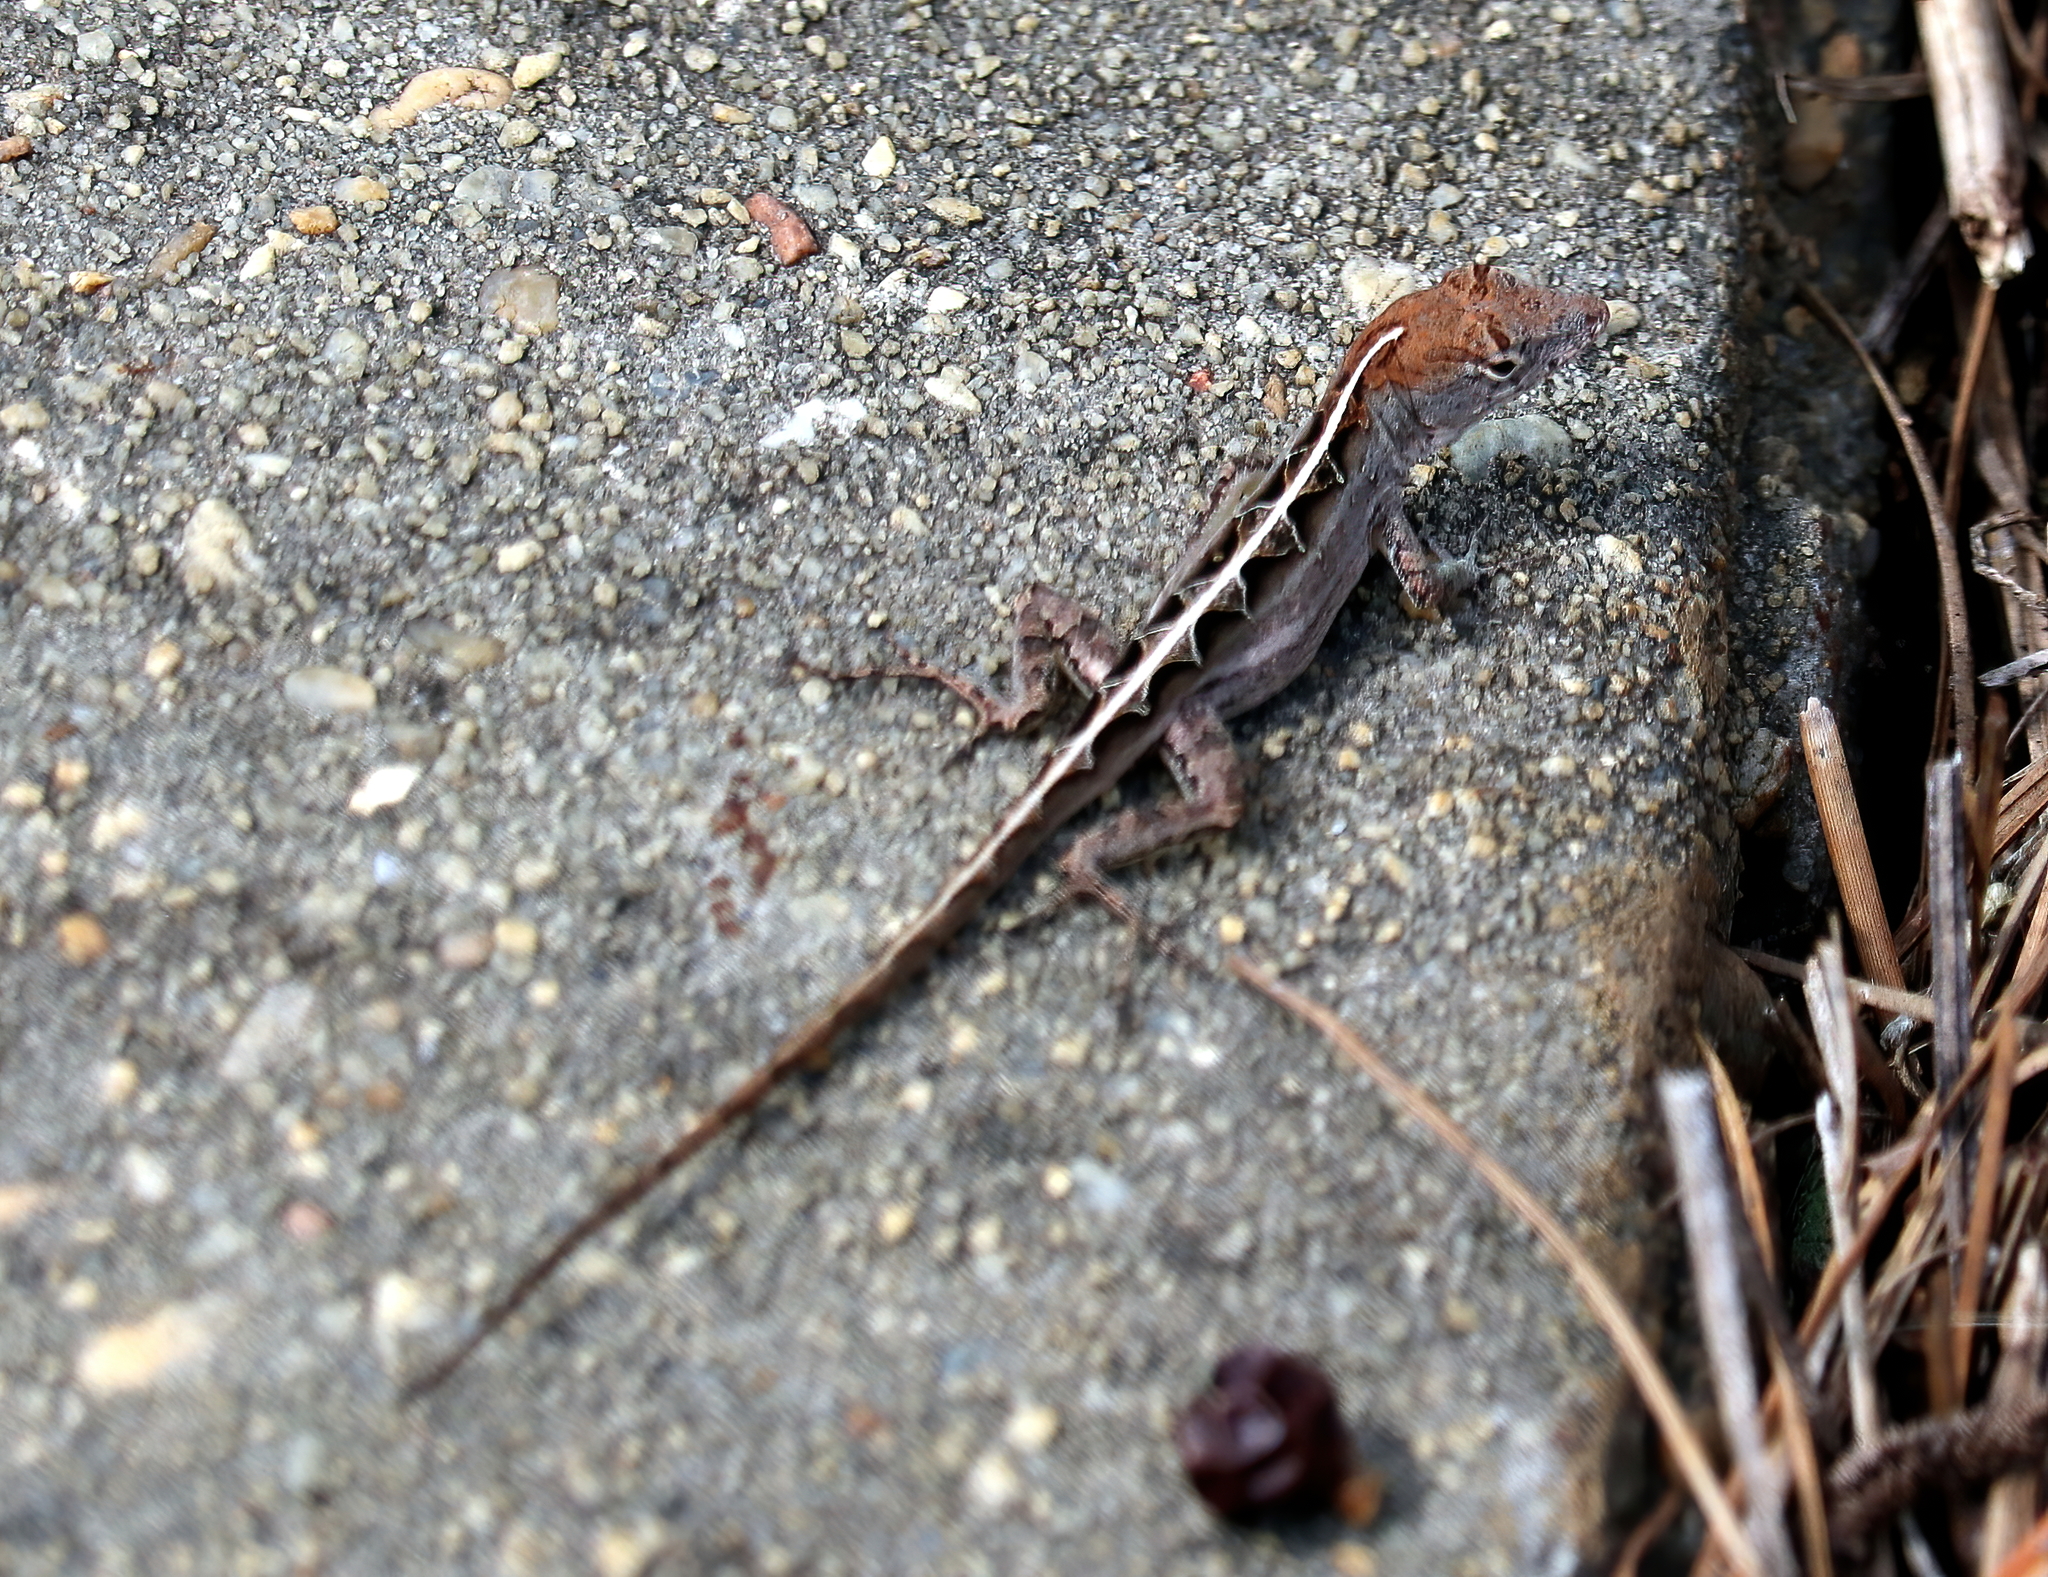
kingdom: Animalia
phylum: Chordata
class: Squamata
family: Dactyloidae
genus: Anolis
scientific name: Anolis sagrei
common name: Brown anole
